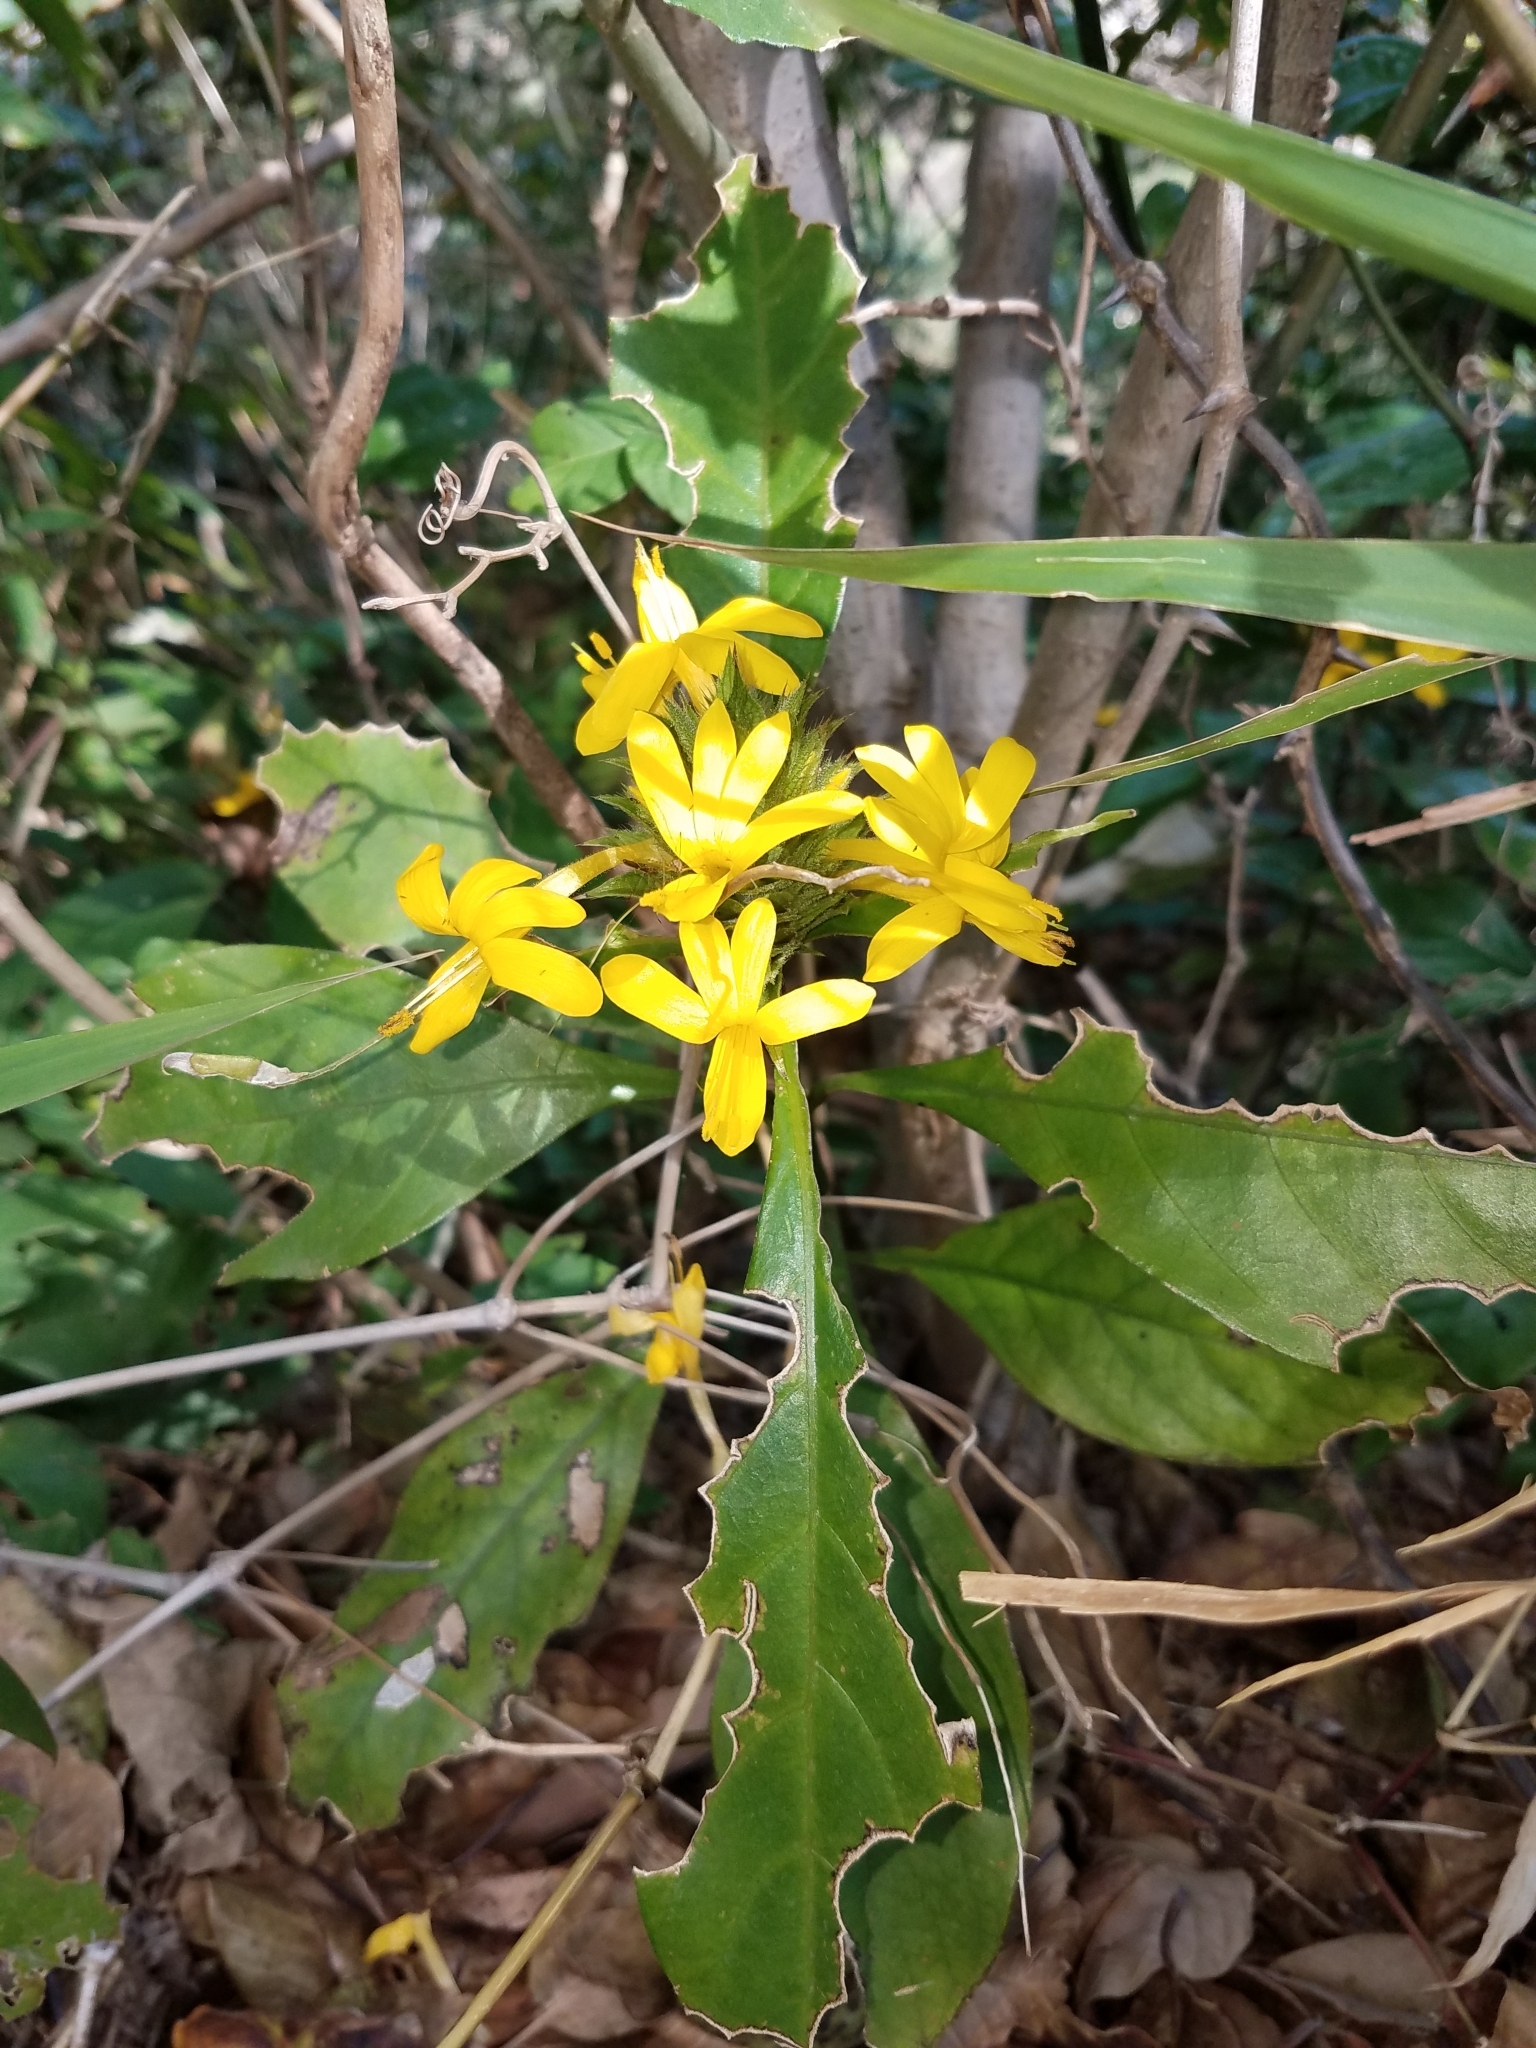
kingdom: Plantae
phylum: Tracheophyta
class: Magnoliopsida
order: Lamiales
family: Acanthaceae
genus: Barleria
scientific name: Barleria oenotheroides
